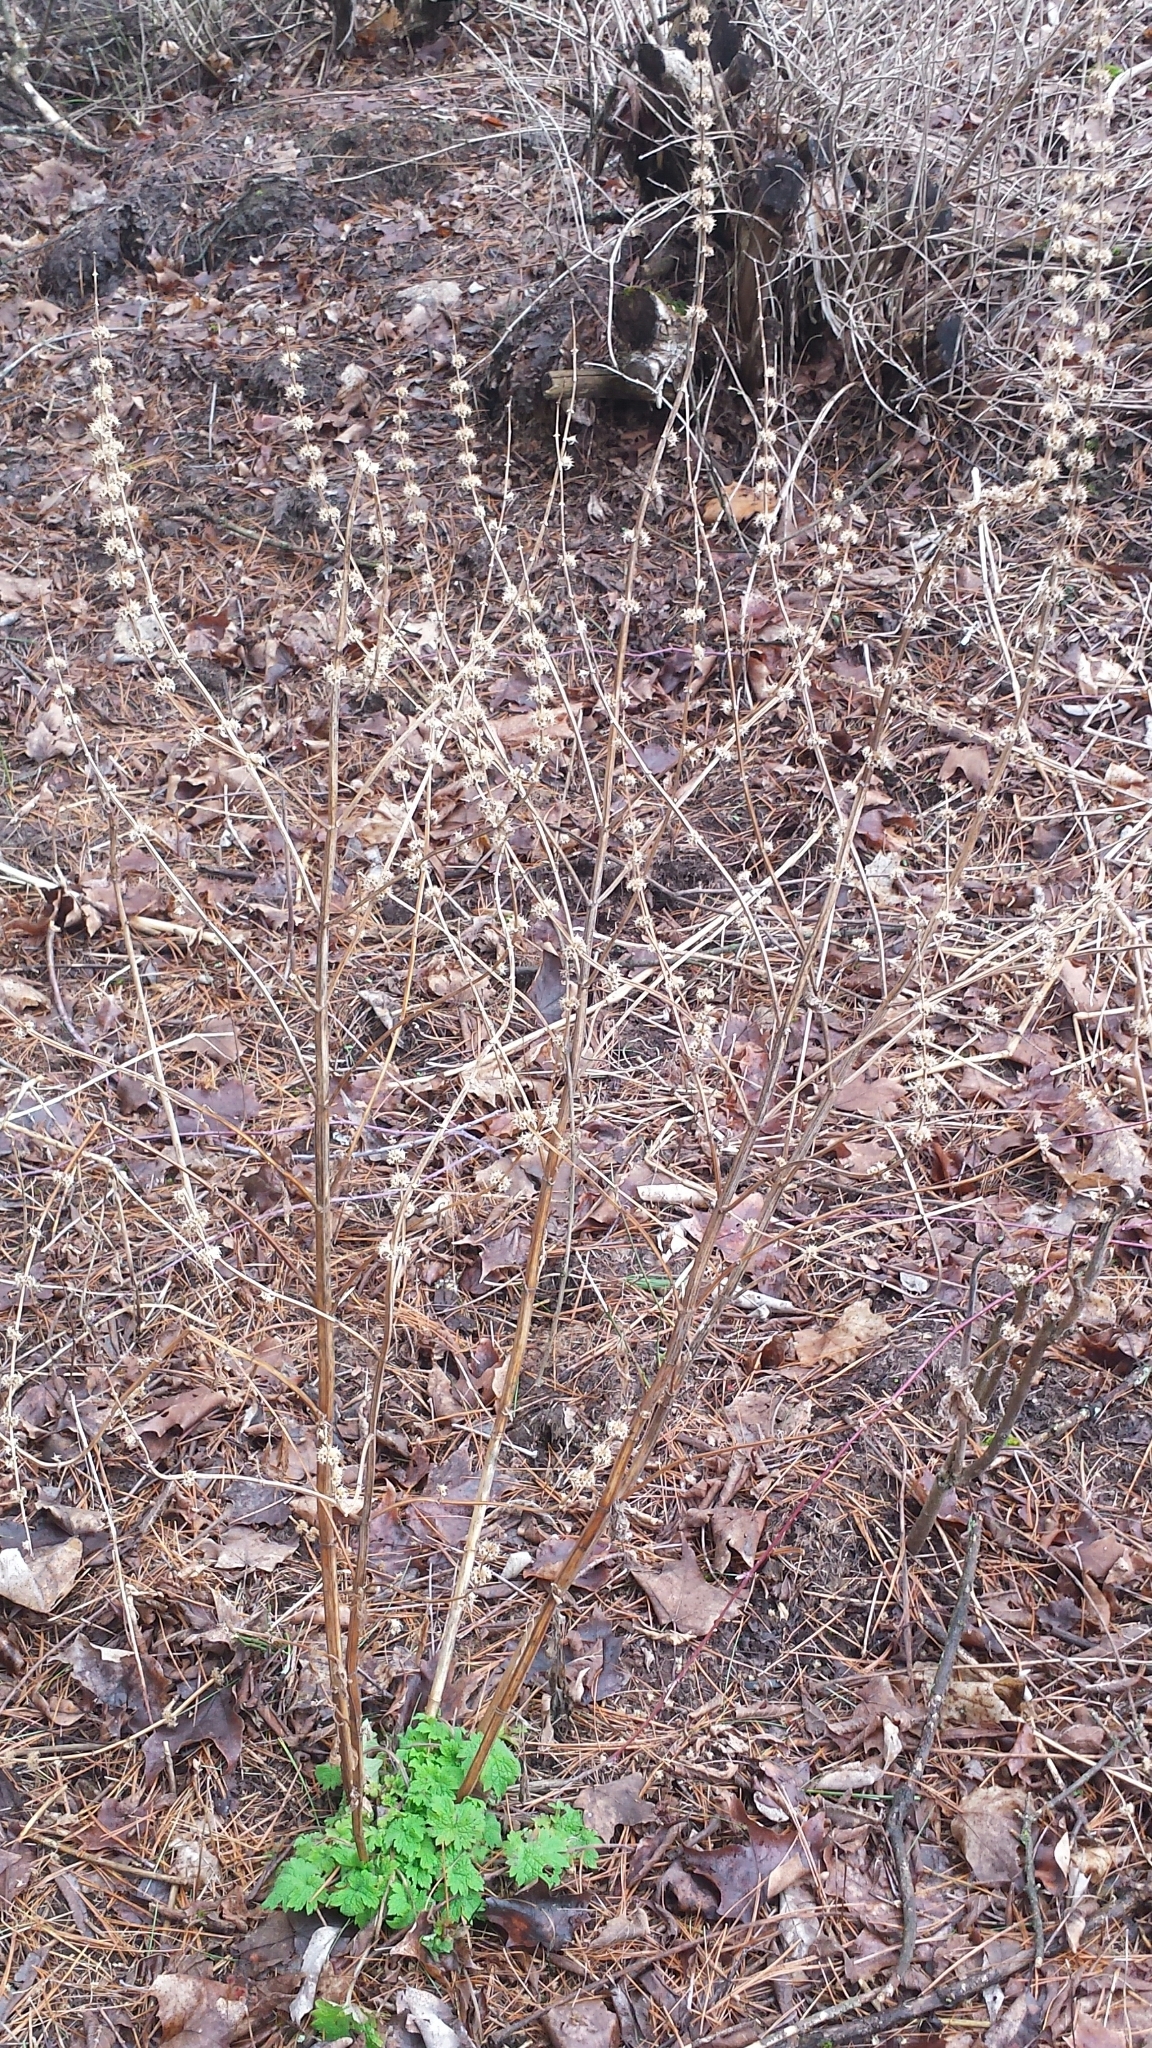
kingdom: Plantae
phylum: Tracheophyta
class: Magnoliopsida
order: Lamiales
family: Lamiaceae
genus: Leonurus
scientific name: Leonurus cardiaca
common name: Motherwort
